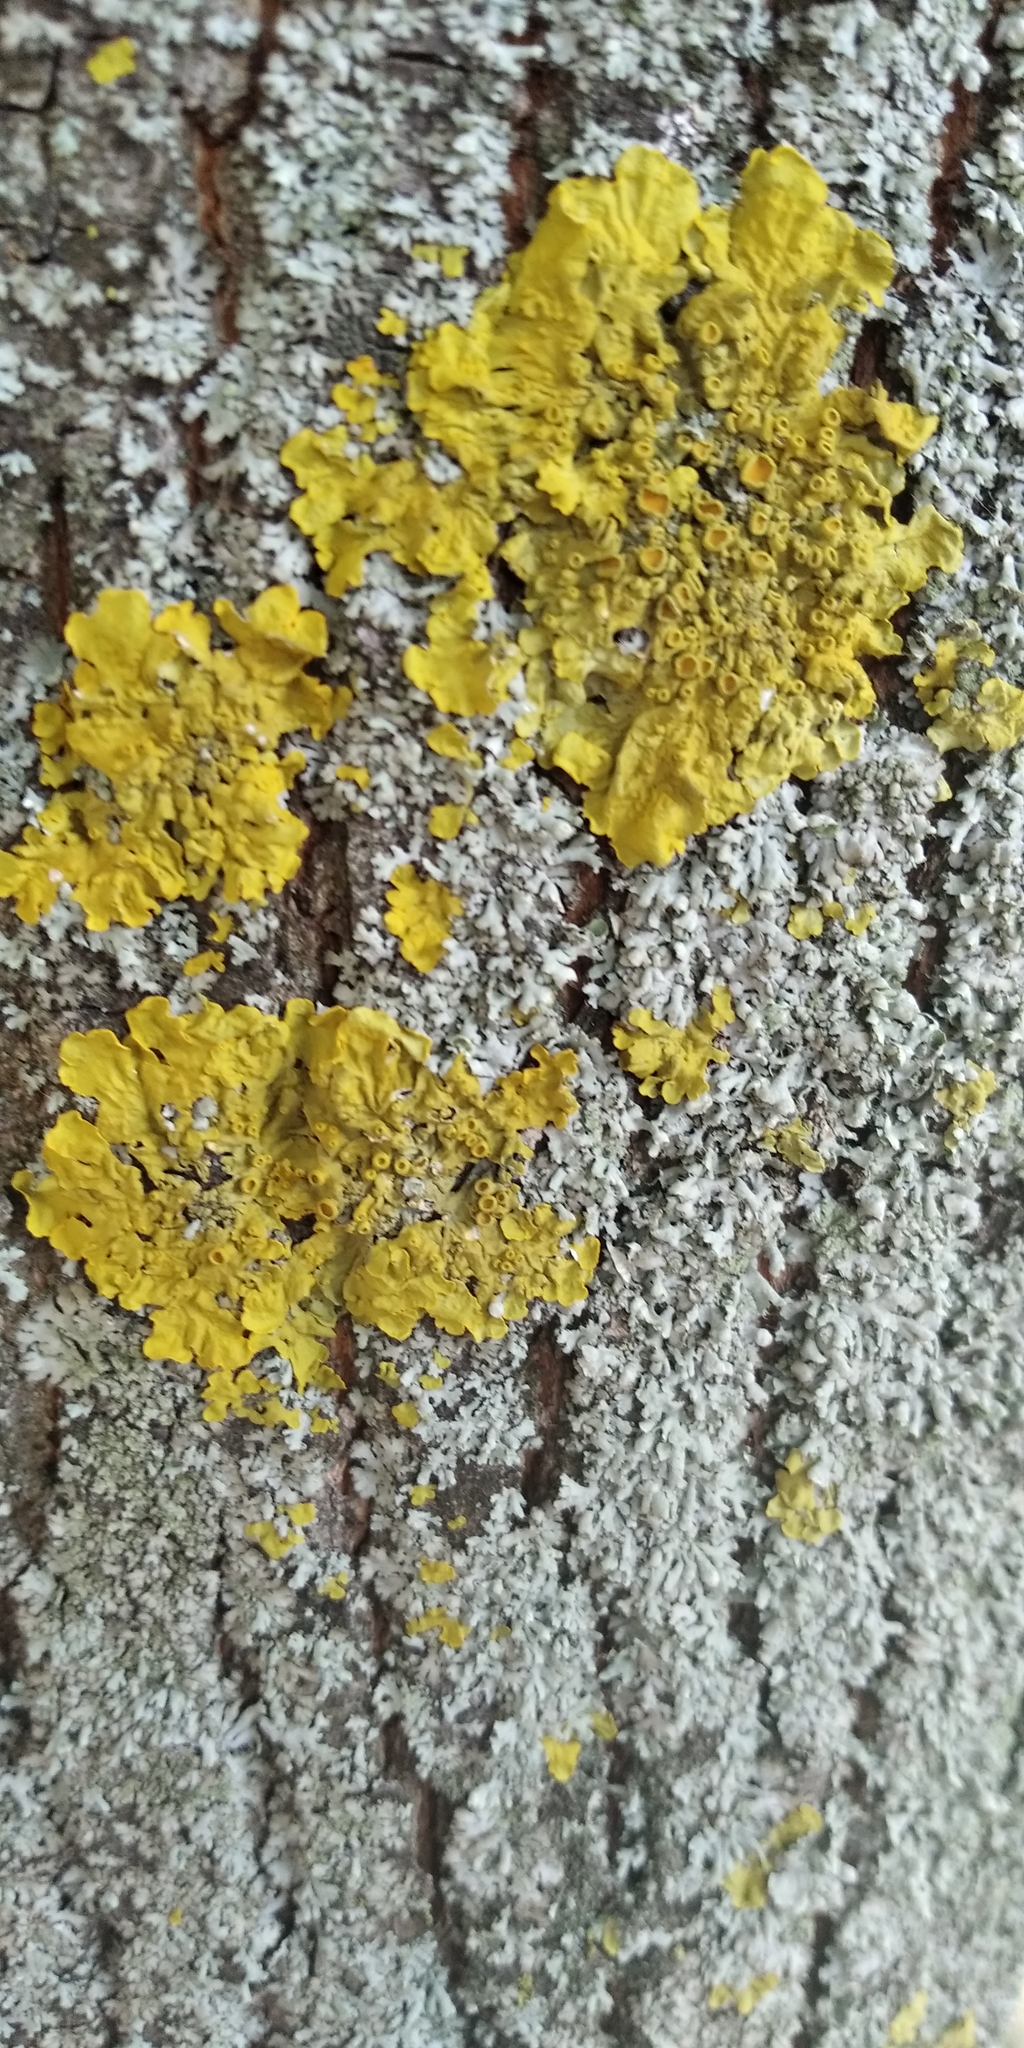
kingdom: Fungi
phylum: Ascomycota
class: Lecanoromycetes
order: Teloschistales
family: Teloschistaceae
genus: Xanthoria
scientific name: Xanthoria parietina
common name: Common orange lichen
